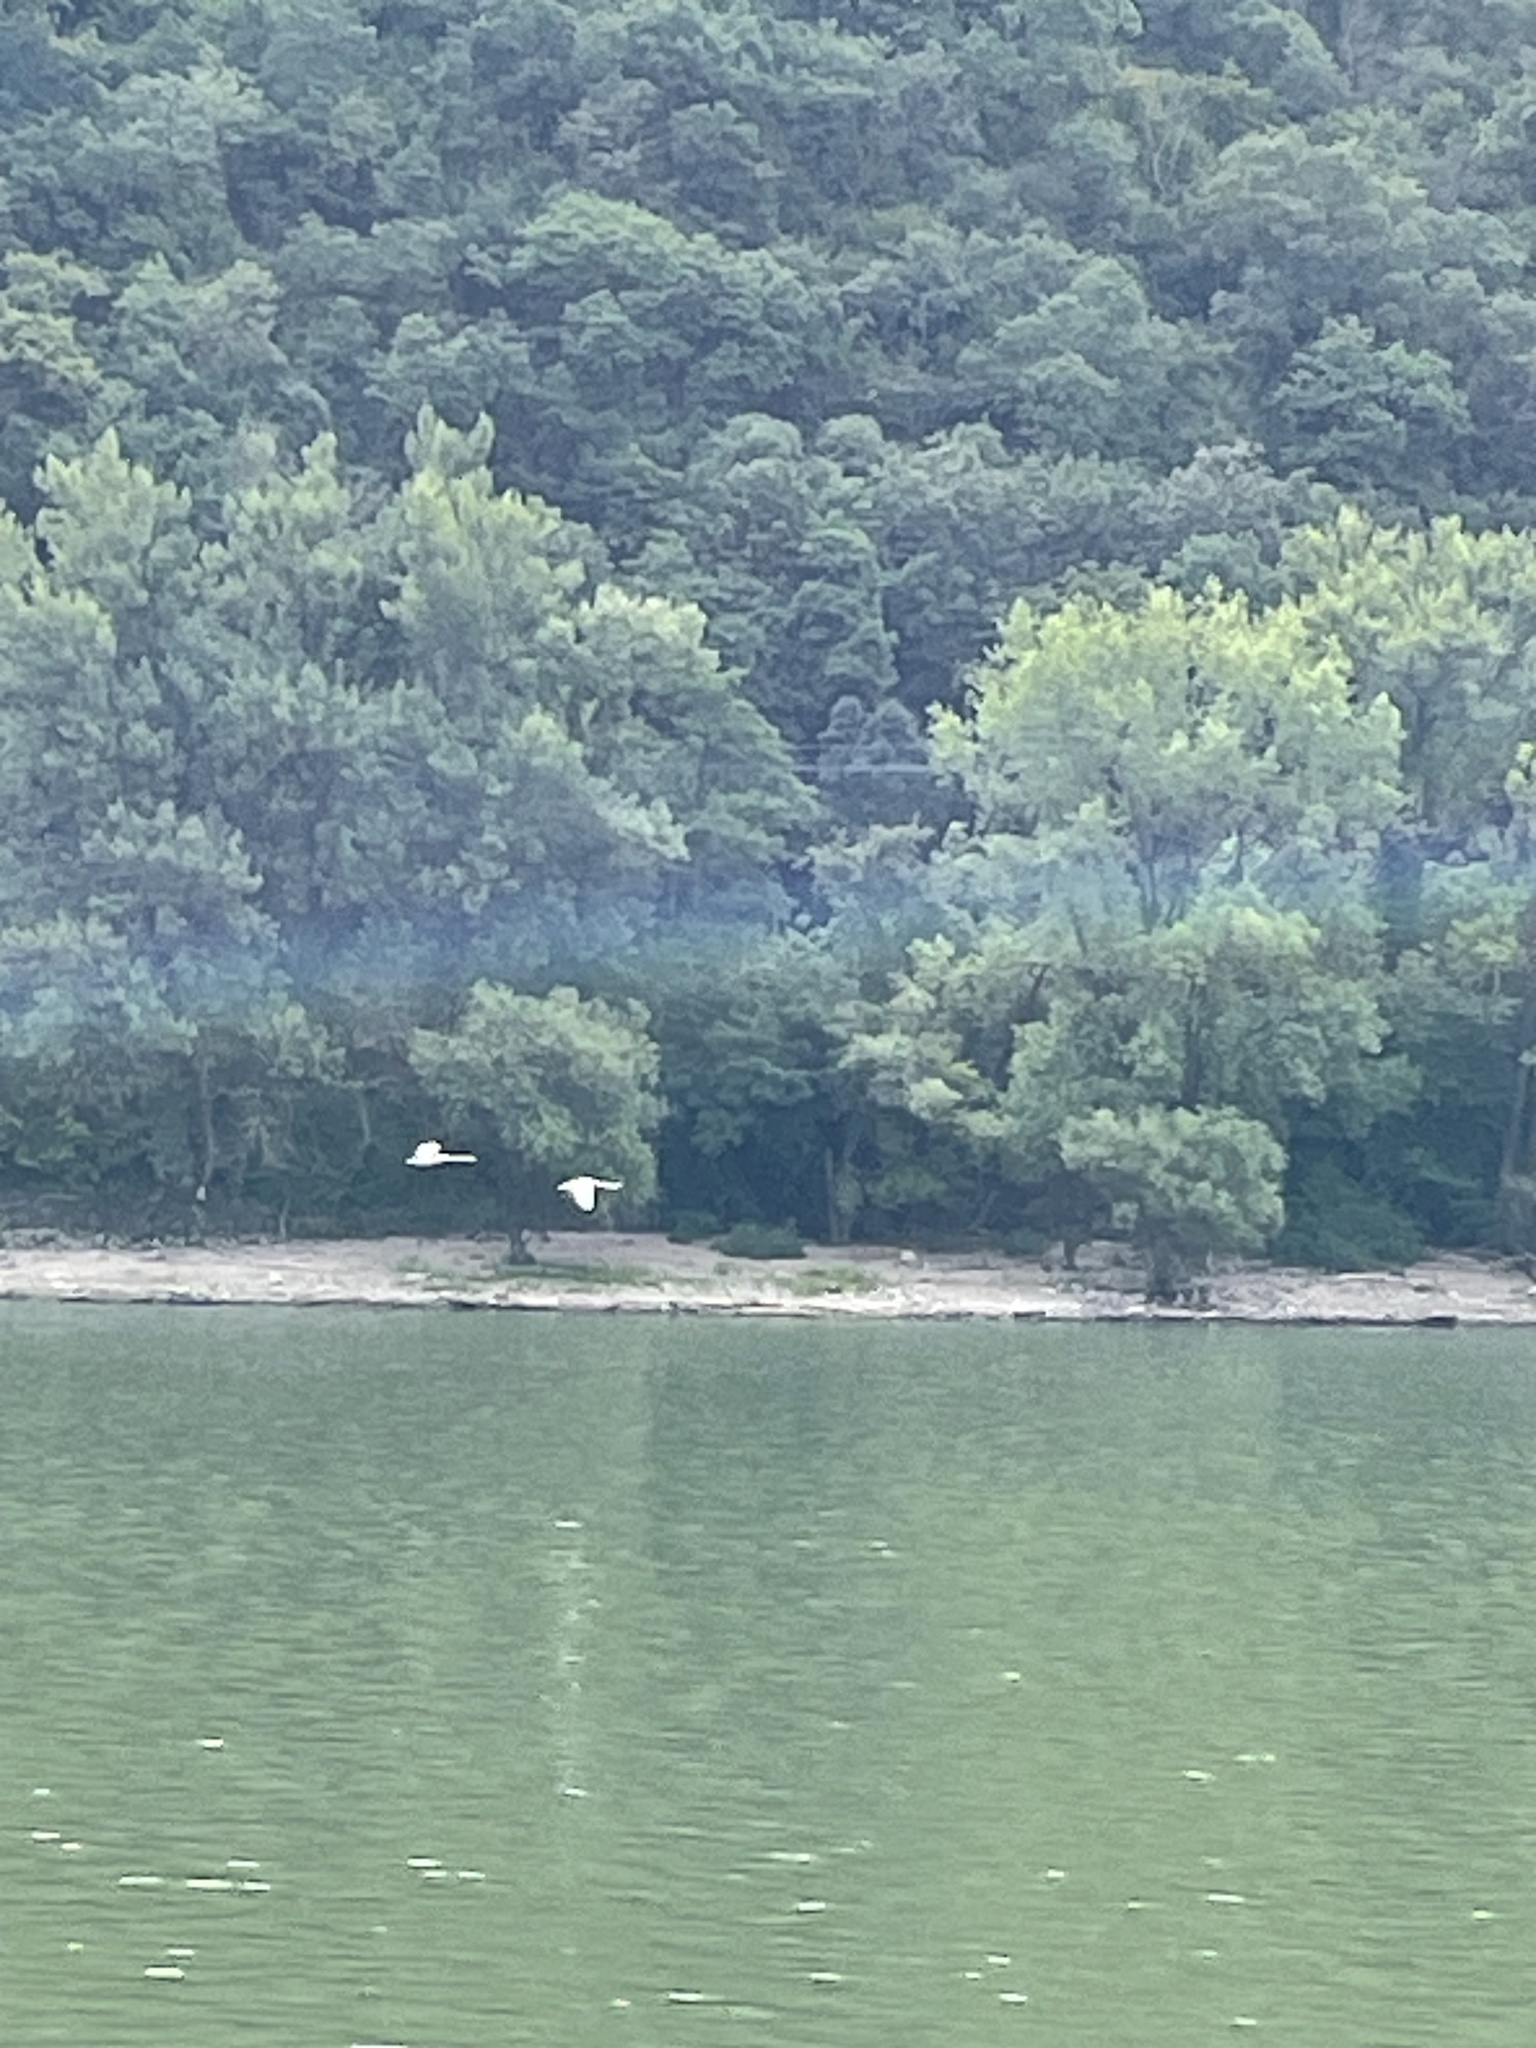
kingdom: Animalia
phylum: Chordata
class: Aves
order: Anseriformes
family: Anatidae
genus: Cygnus
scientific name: Cygnus olor
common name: Mute swan
